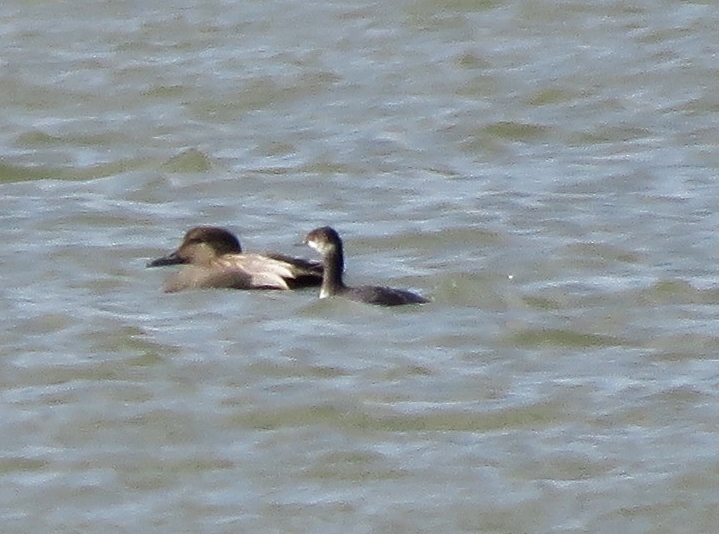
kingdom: Animalia
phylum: Chordata
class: Aves
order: Anseriformes
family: Anatidae
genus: Mareca
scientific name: Mareca strepera
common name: Gadwall
